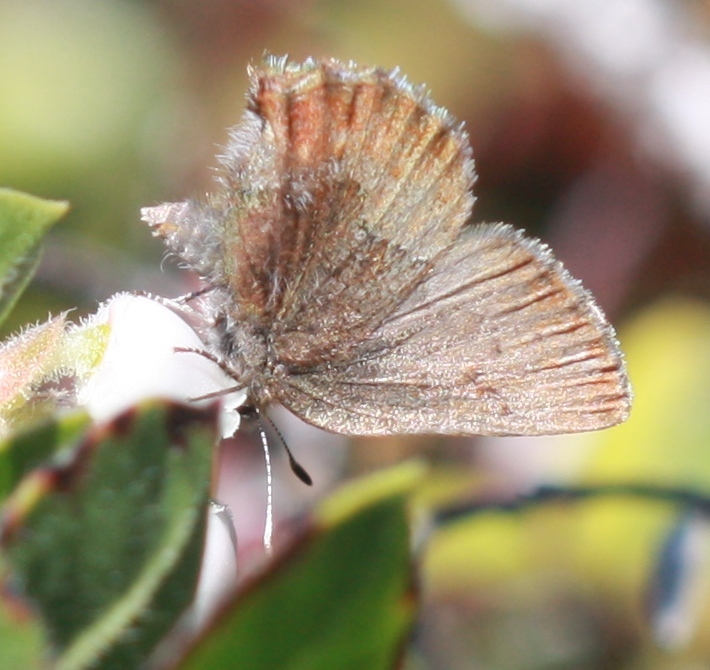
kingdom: Animalia
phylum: Arthropoda
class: Insecta
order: Lepidoptera
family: Lycaenidae
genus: Callophrys
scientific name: Callophrys mossii
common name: Moss' elfin
